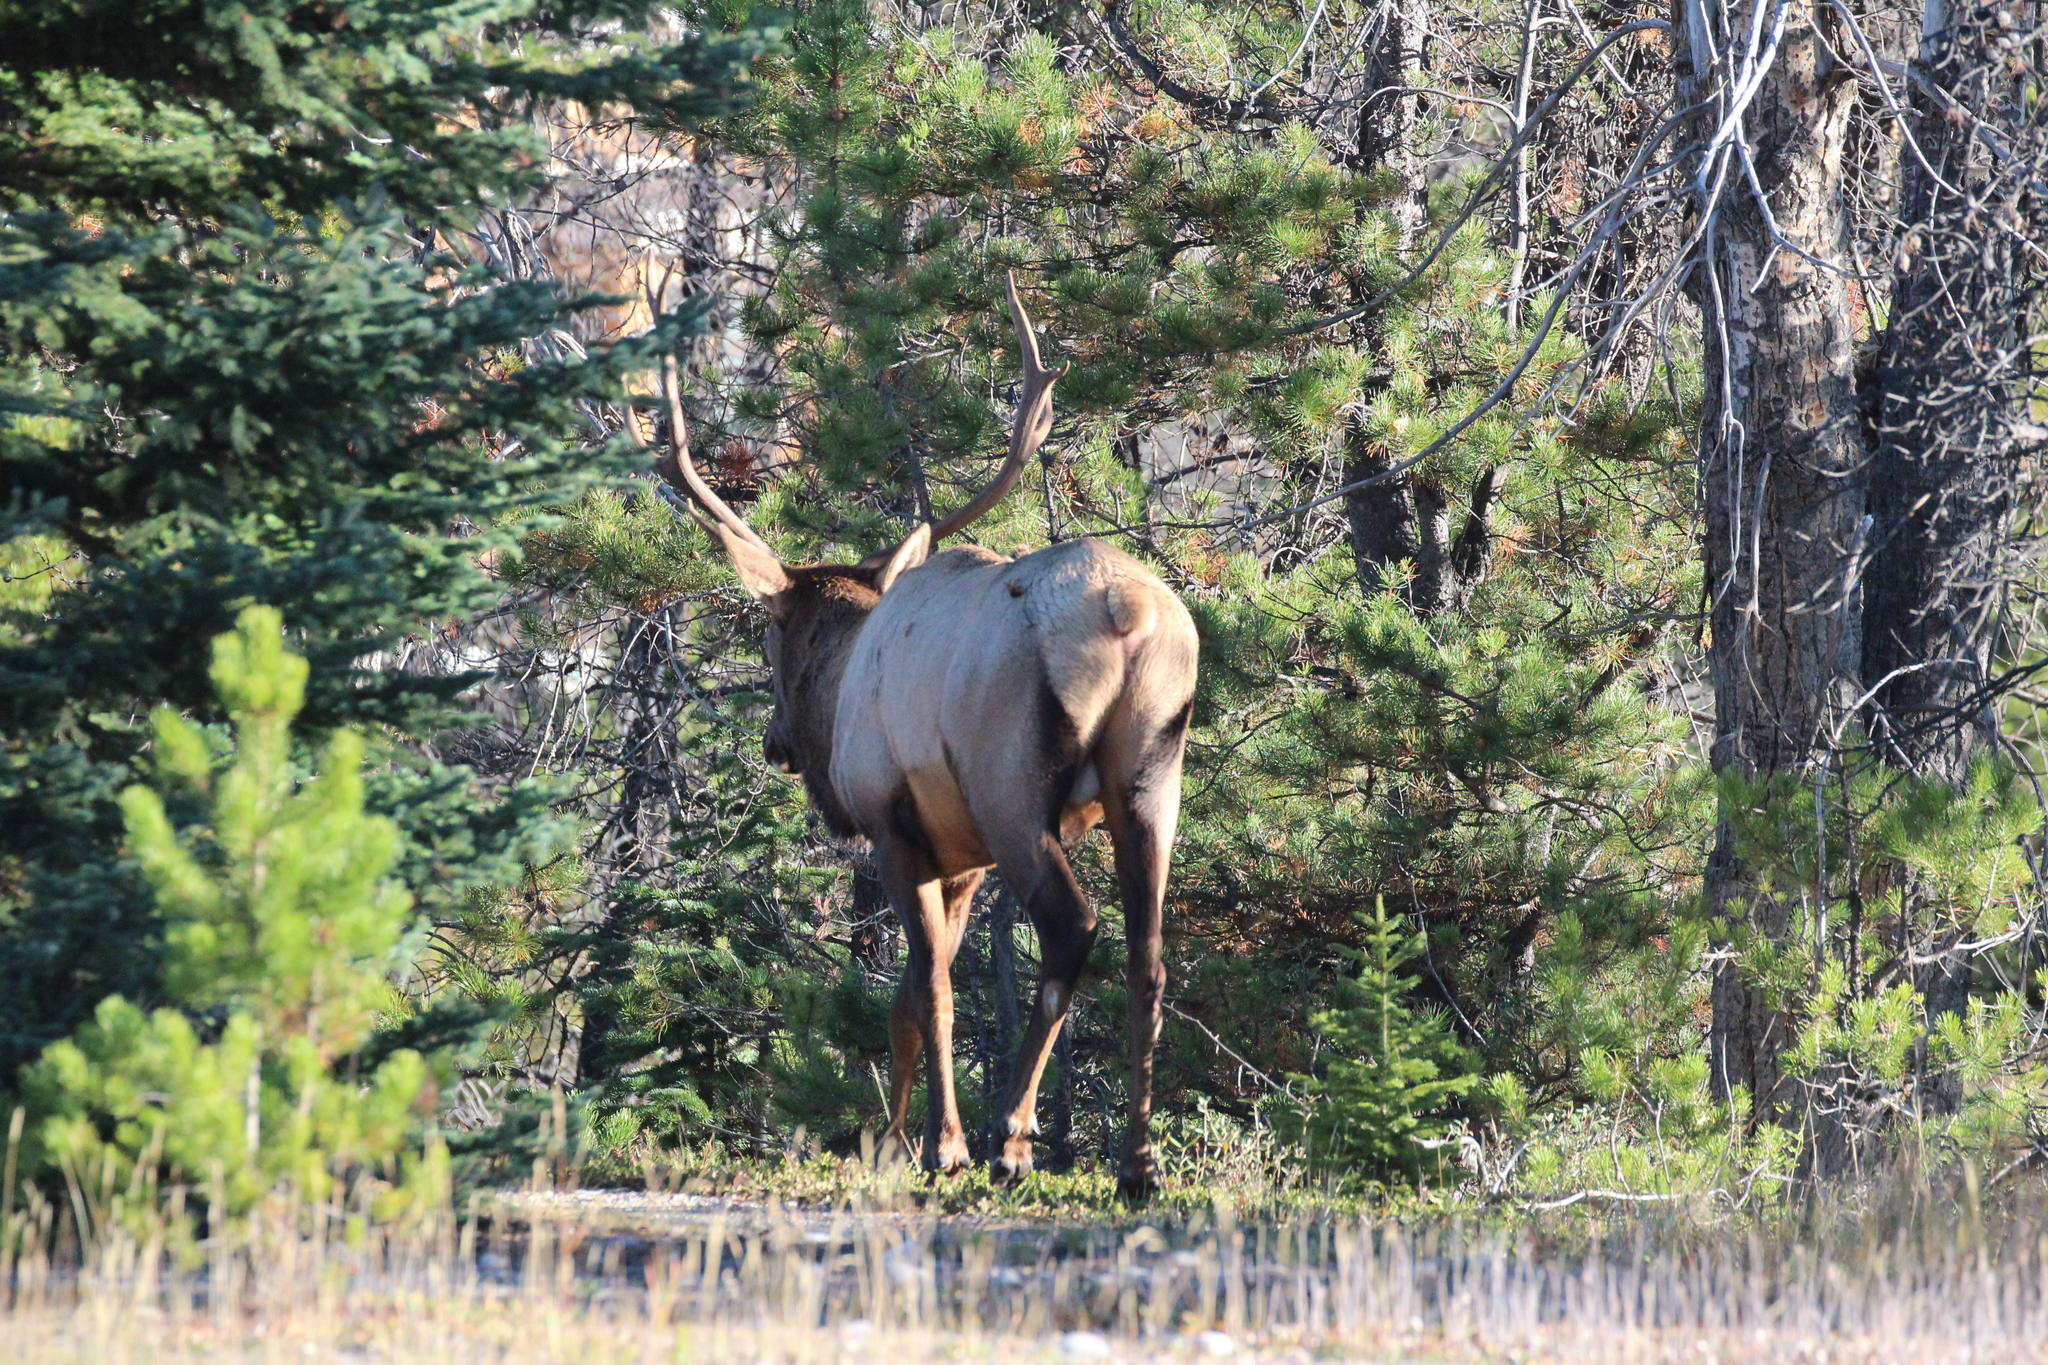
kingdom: Animalia
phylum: Chordata
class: Mammalia
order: Artiodactyla
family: Cervidae
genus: Cervus
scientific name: Cervus elaphus
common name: Red deer
